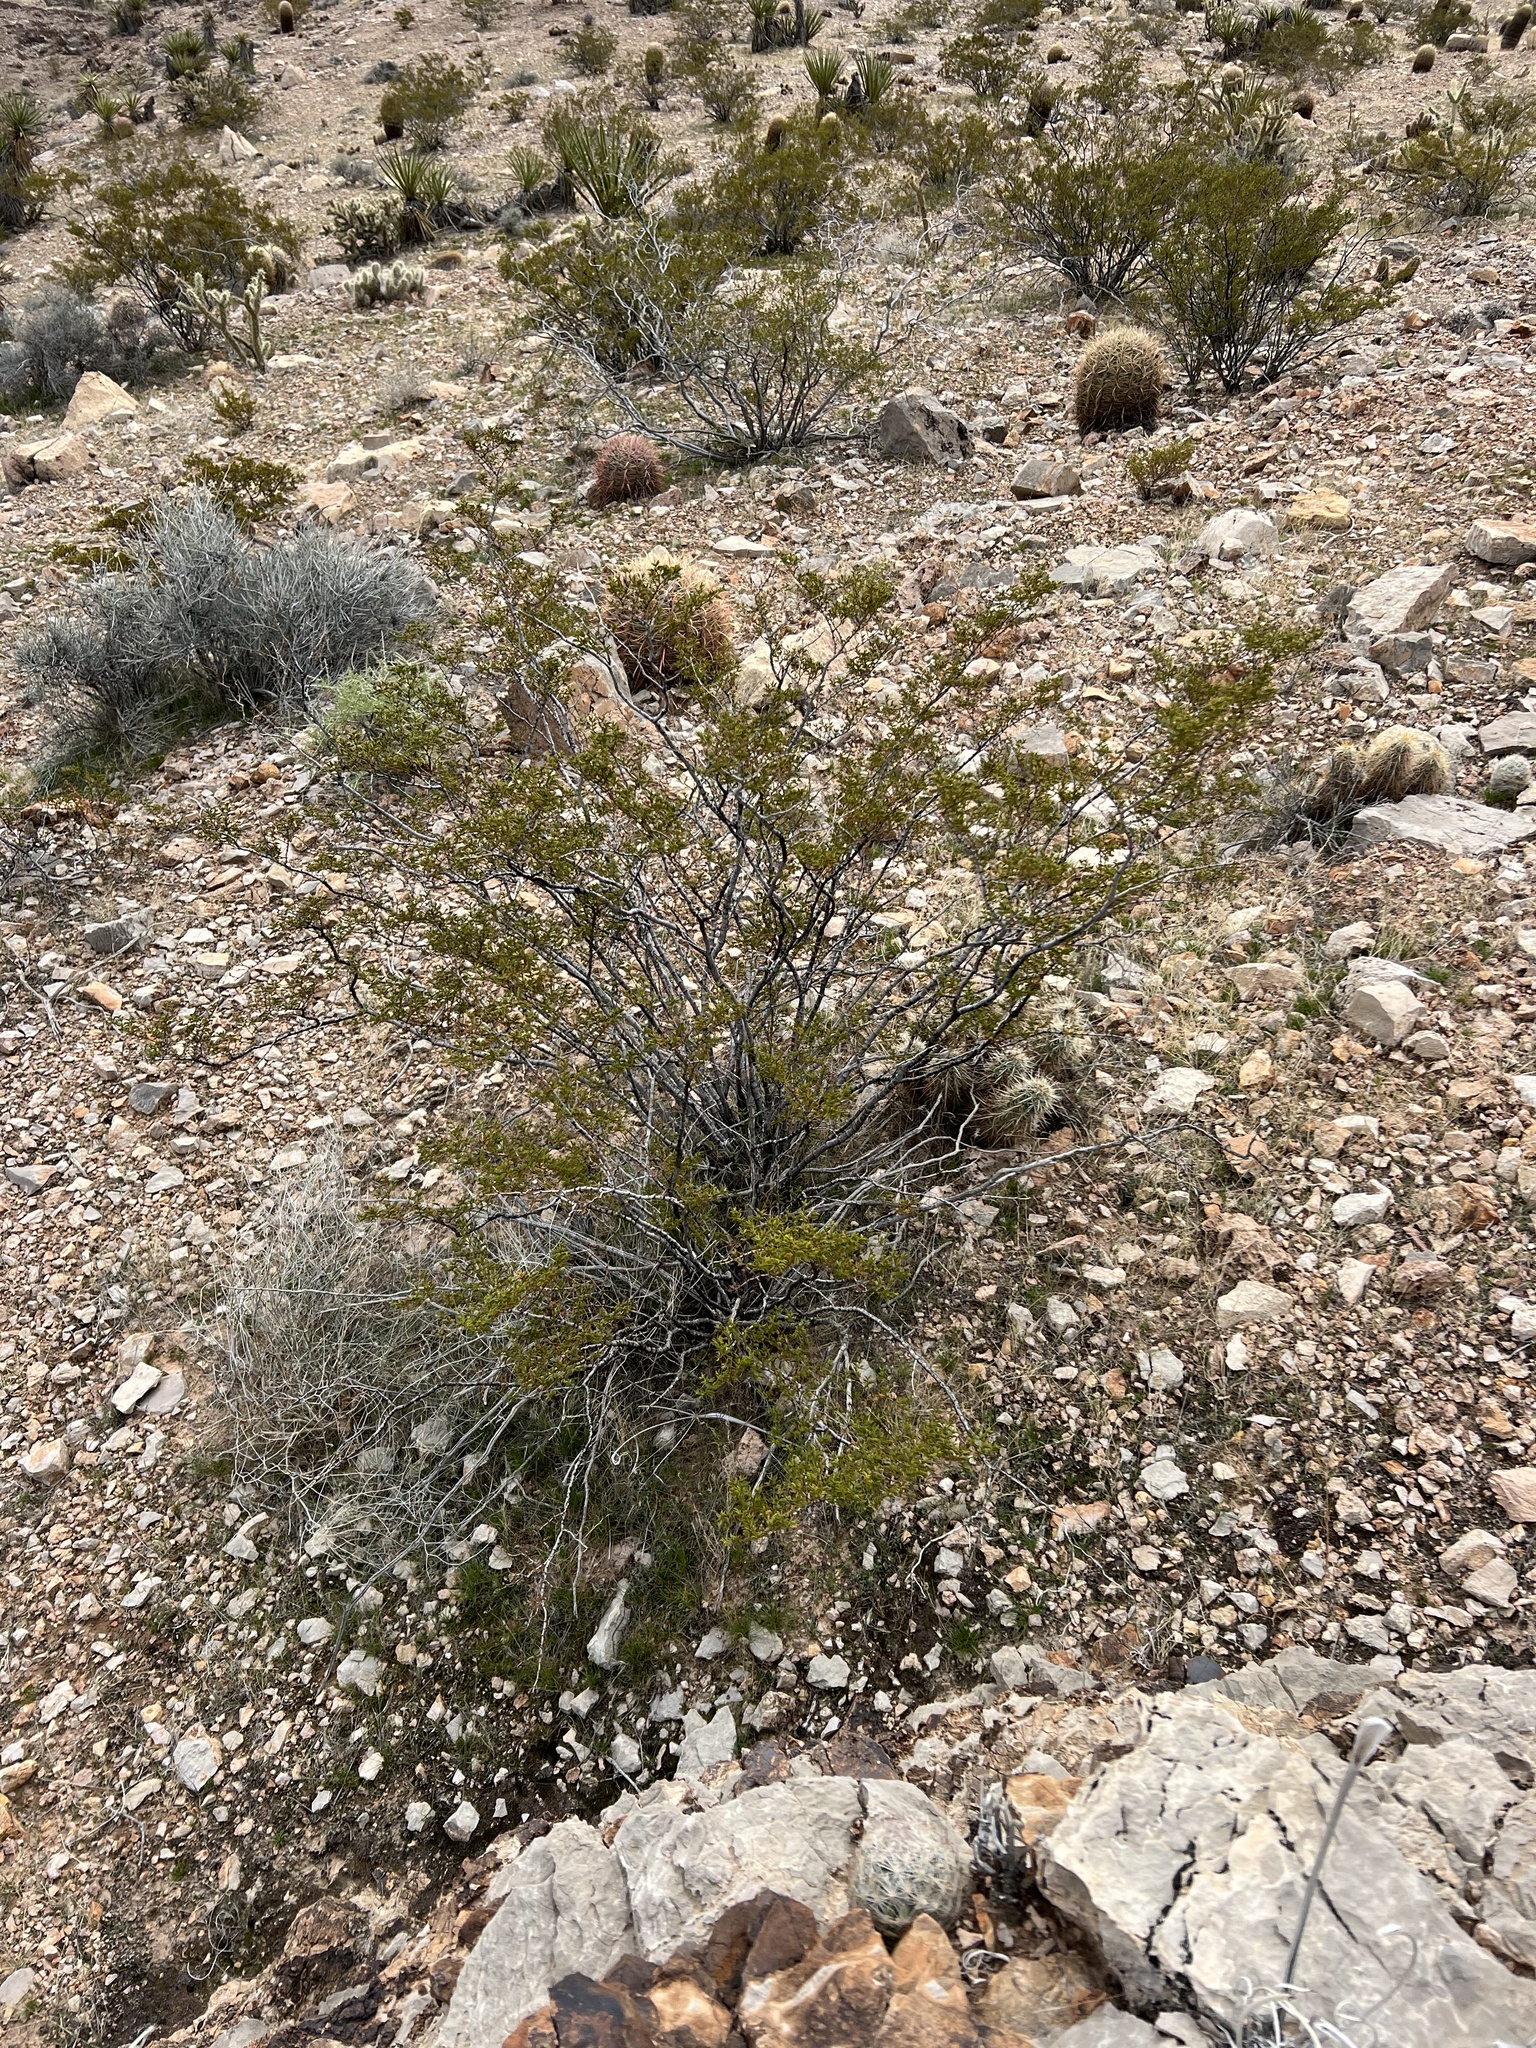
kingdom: Plantae
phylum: Tracheophyta
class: Magnoliopsida
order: Zygophyllales
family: Zygophyllaceae
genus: Larrea
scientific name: Larrea tridentata
